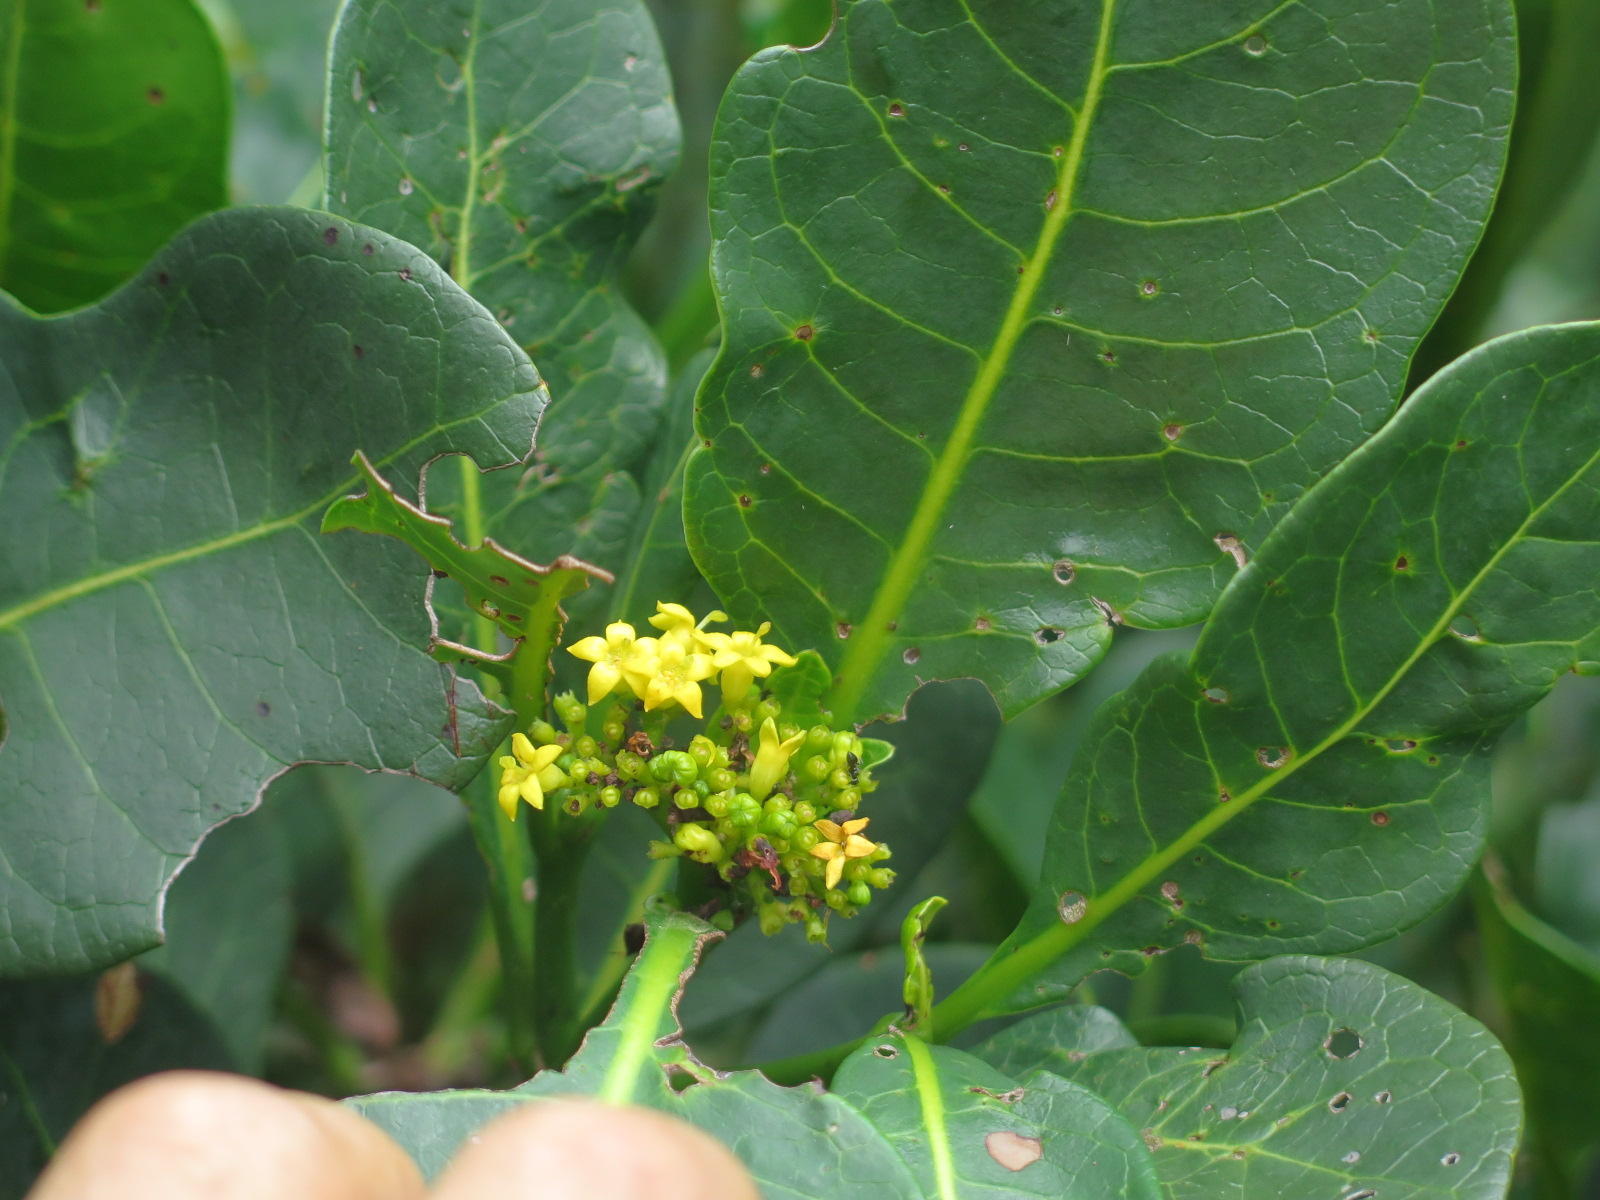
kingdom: Plantae
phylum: Tracheophyta
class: Magnoliopsida
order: Gentianales
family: Rubiaceae
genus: Psychotria
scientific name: Psychotria capensis
